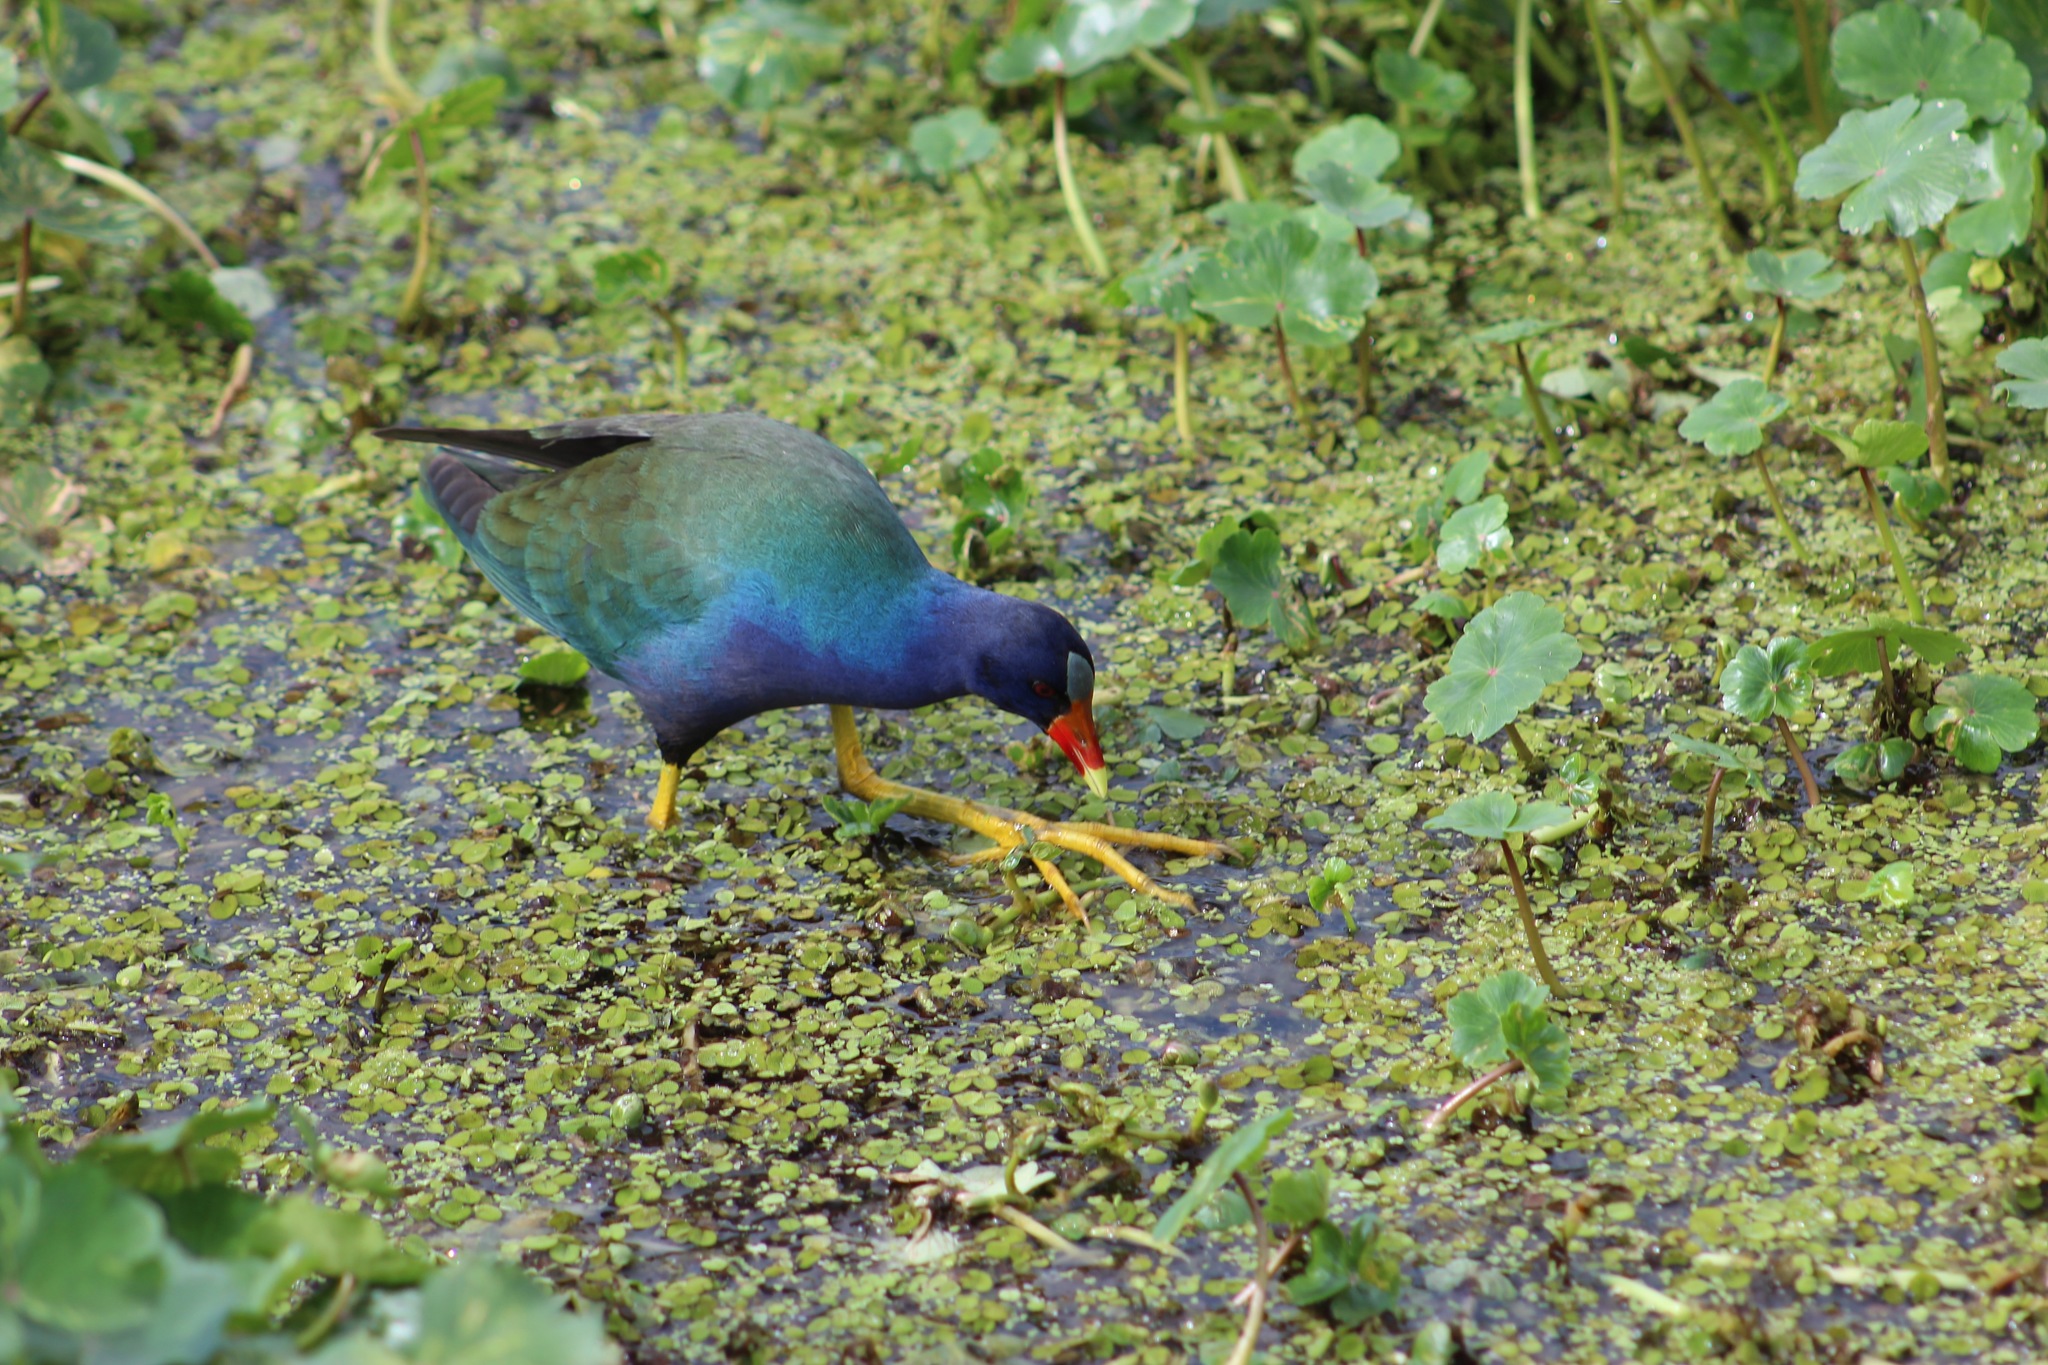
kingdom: Animalia
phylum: Chordata
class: Aves
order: Gruiformes
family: Rallidae
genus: Porphyrio
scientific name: Porphyrio martinica
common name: Purple gallinule
